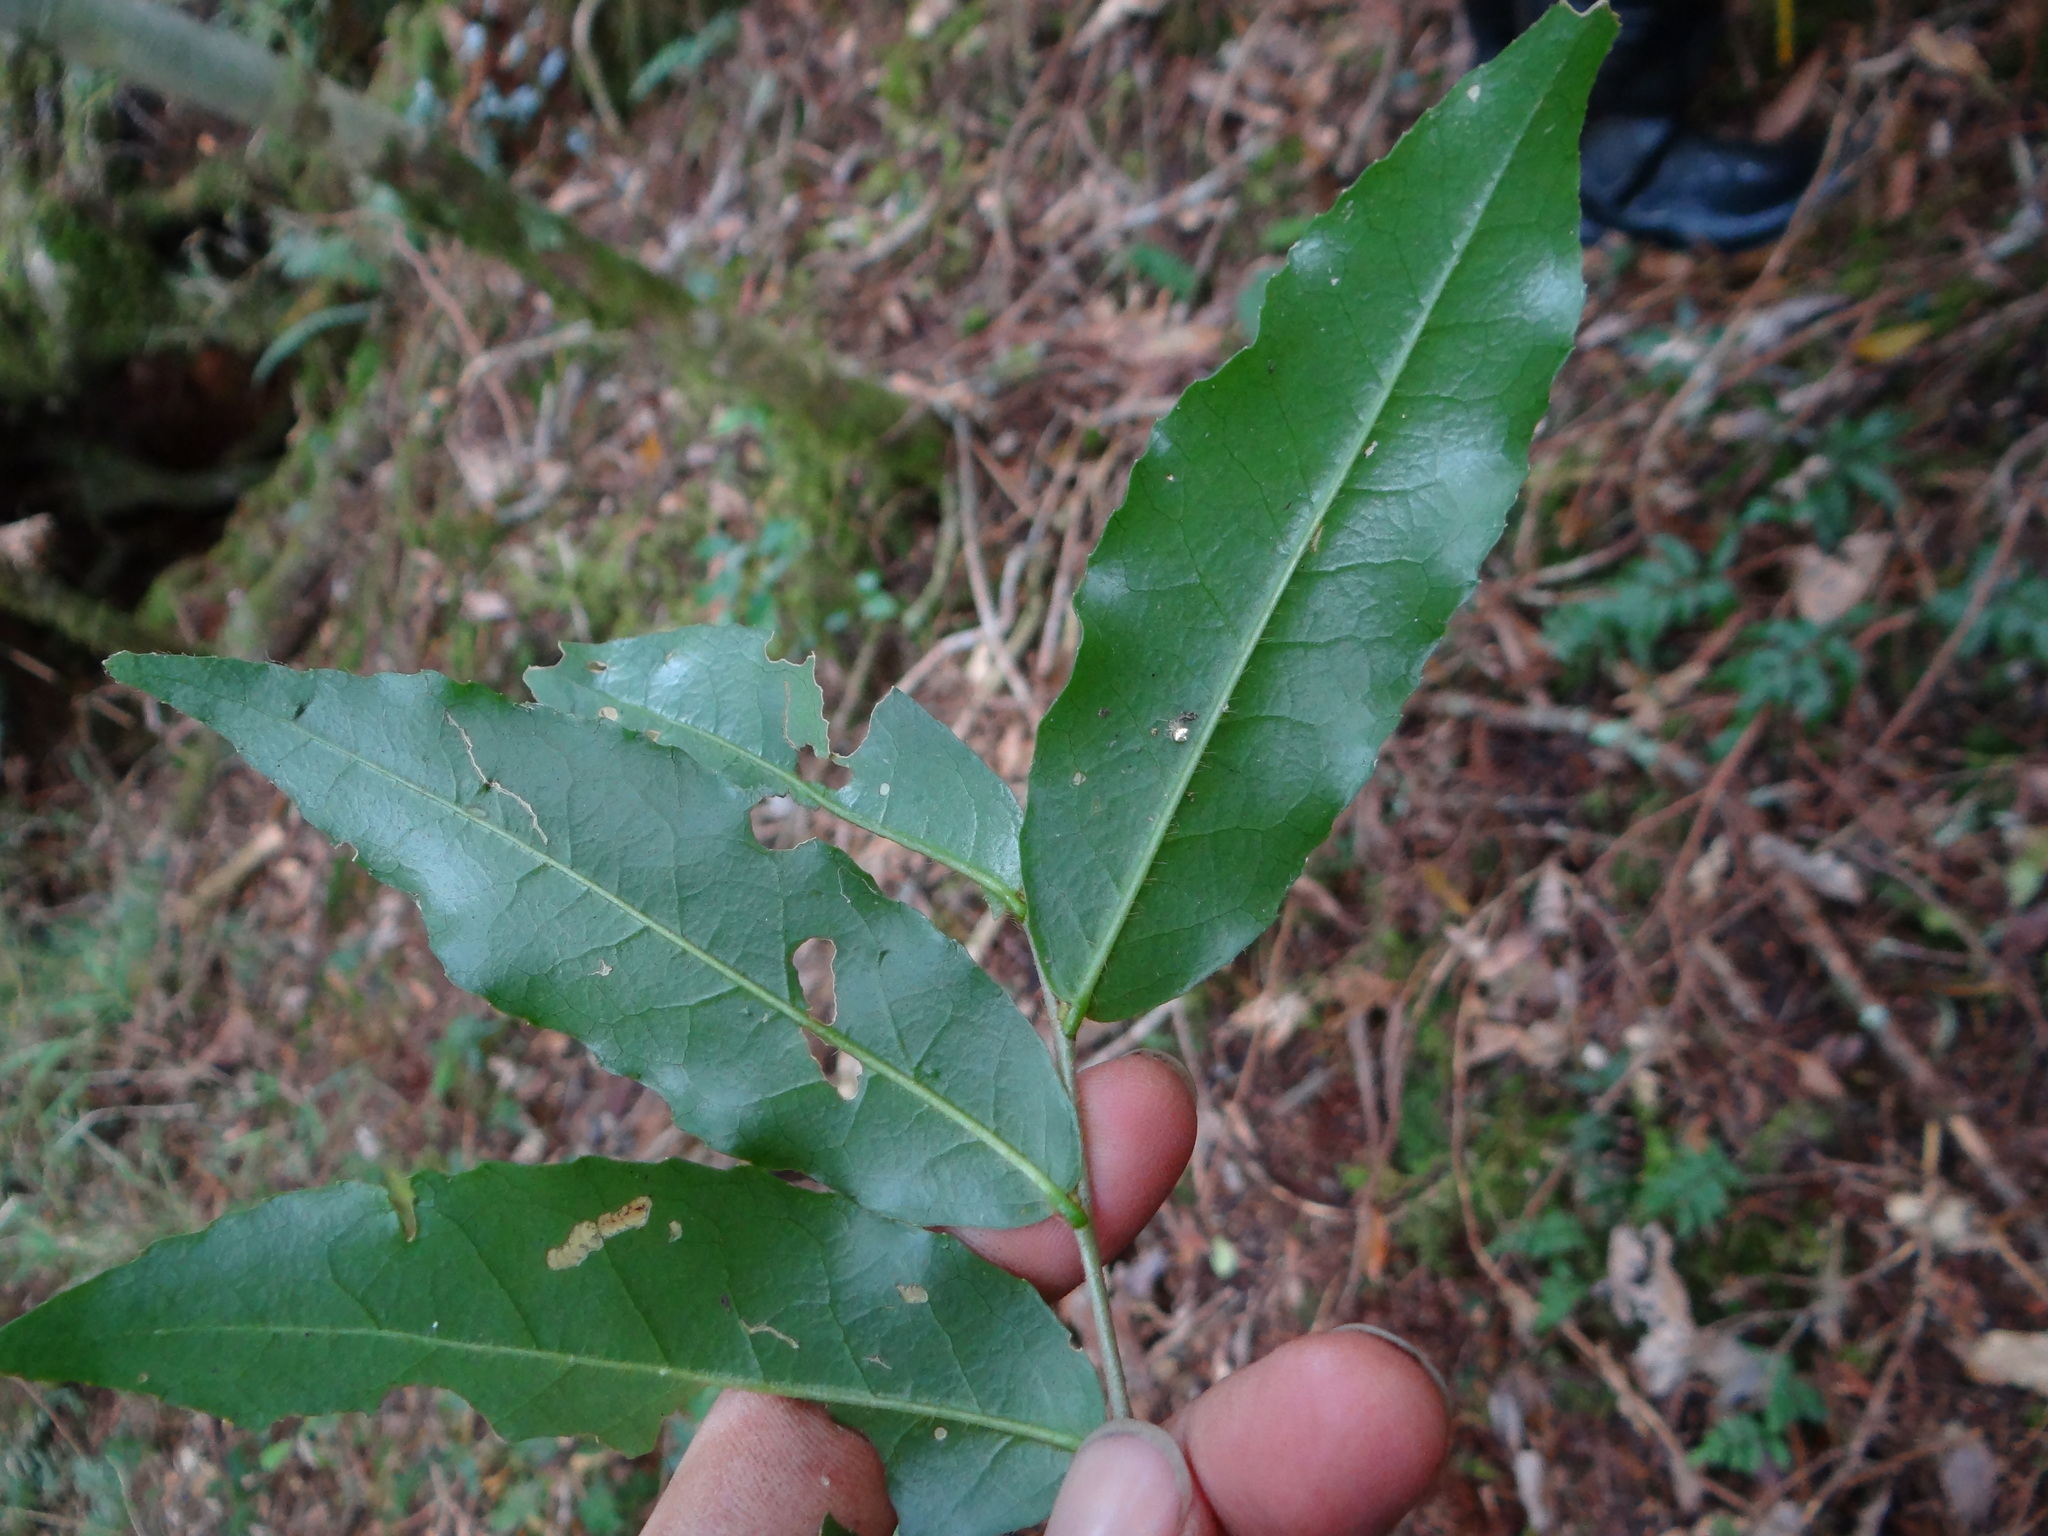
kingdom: Plantae
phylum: Tracheophyta
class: Magnoliopsida
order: Ericales
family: Symplocaceae
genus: Symplocos
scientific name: Symplocos lancifolia
